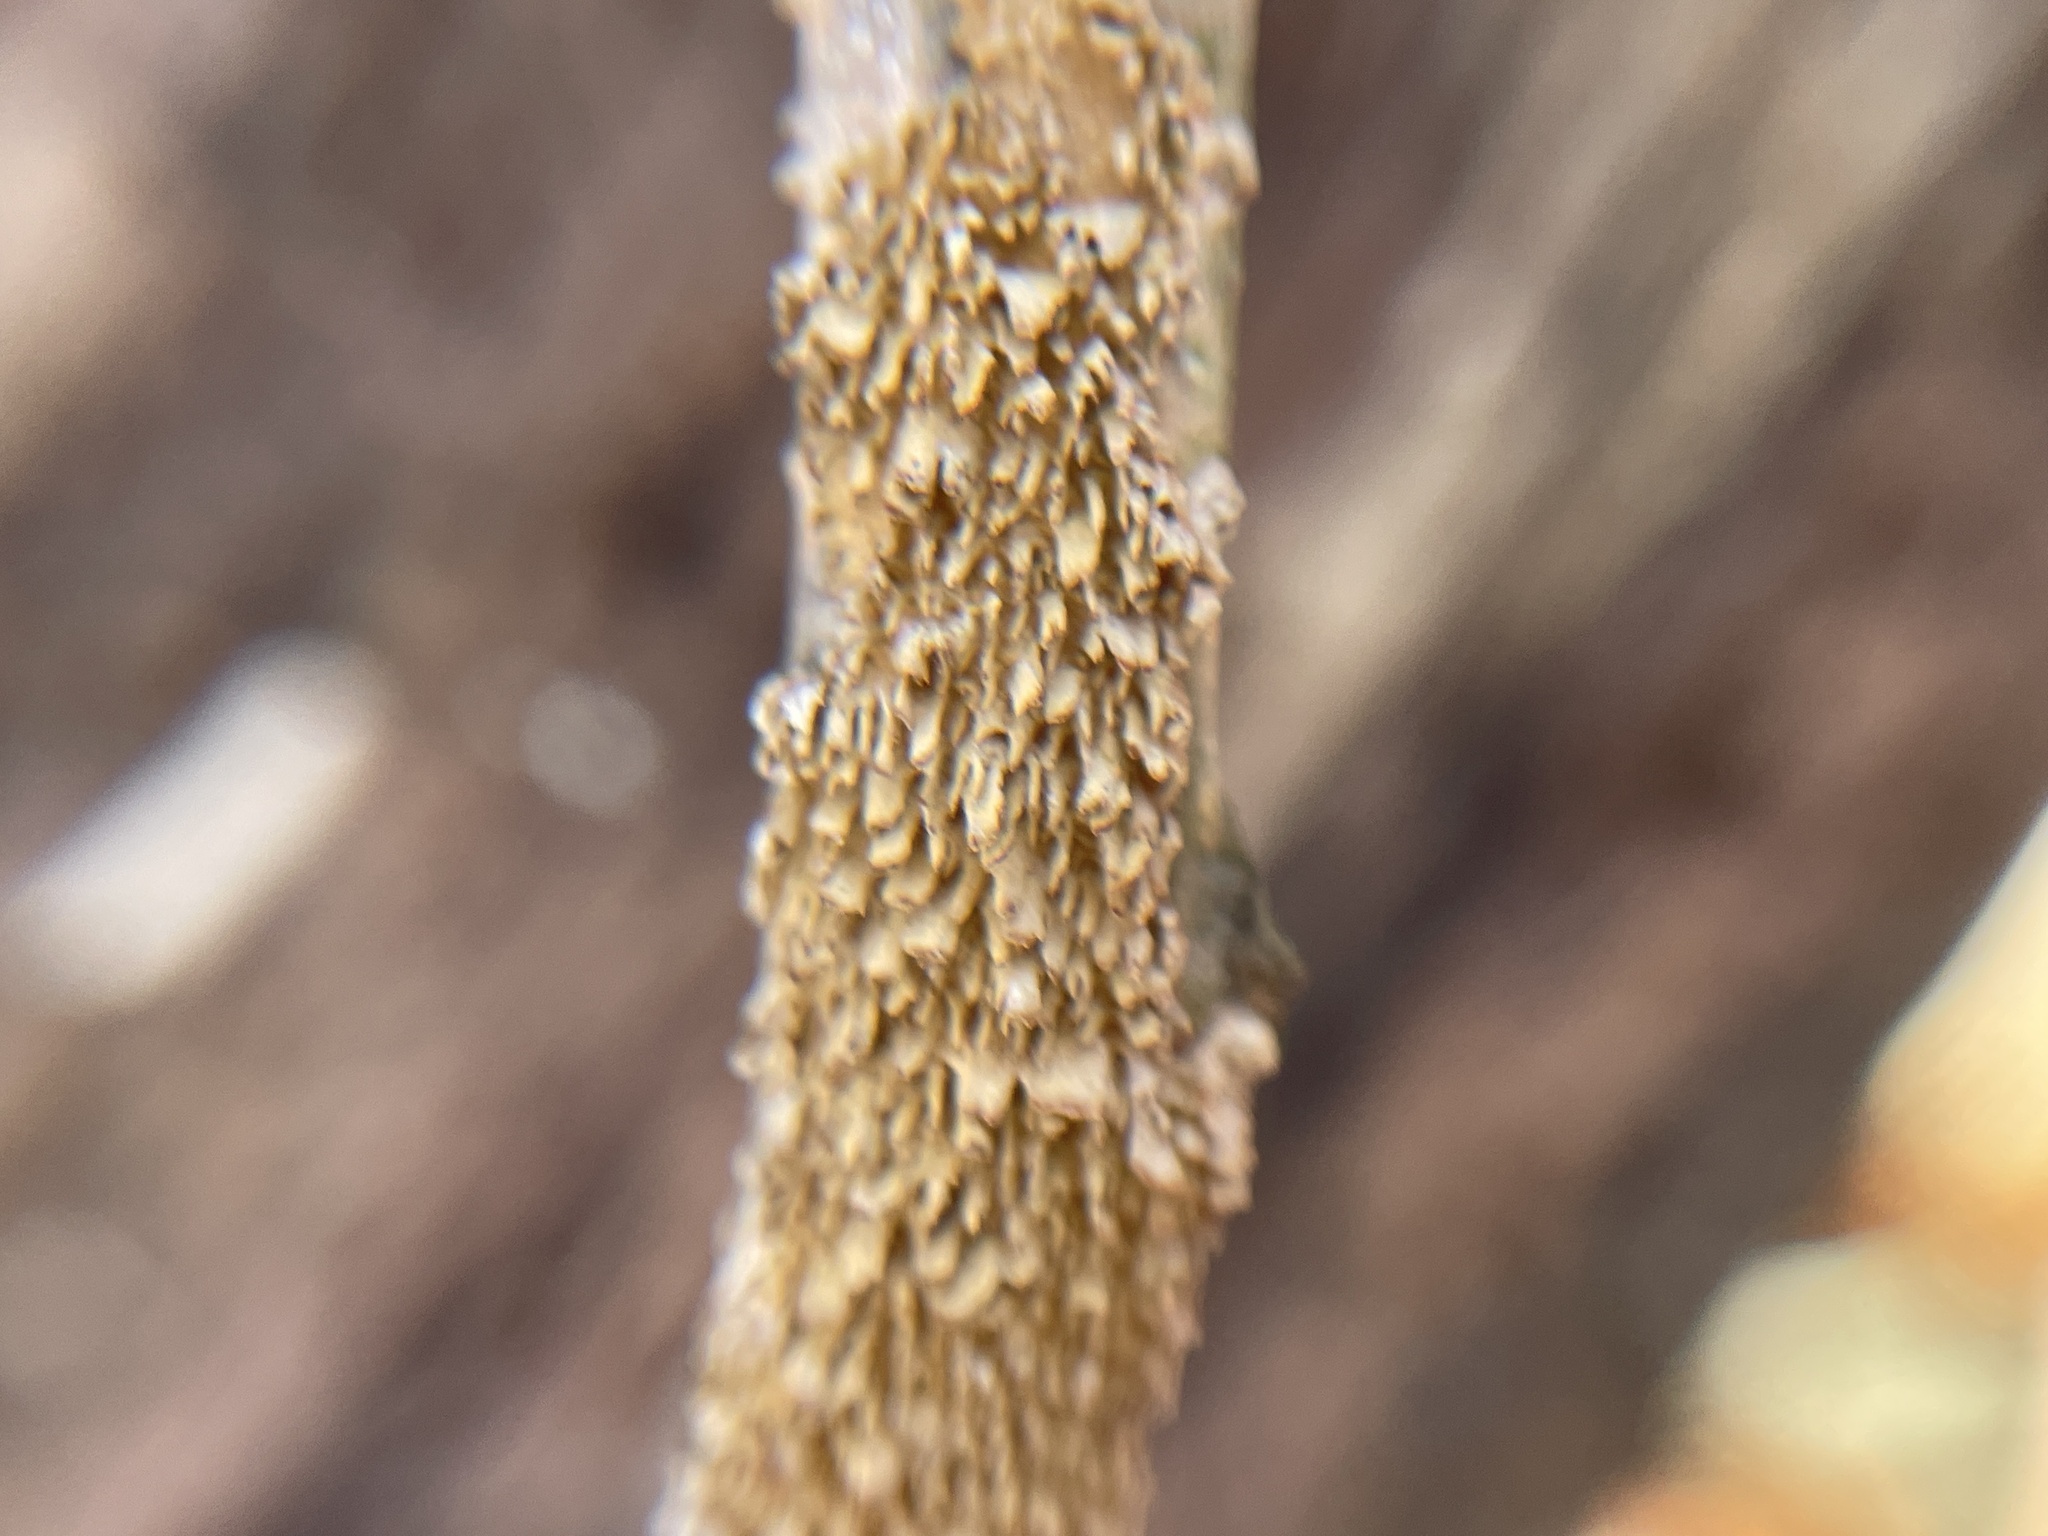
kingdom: Fungi
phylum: Basidiomycota
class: Agaricomycetes
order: Hymenochaetales
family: Hymenochaetaceae
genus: Hydnoporia
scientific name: Hydnoporia olivacea
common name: Brown-toothed crust fungus
